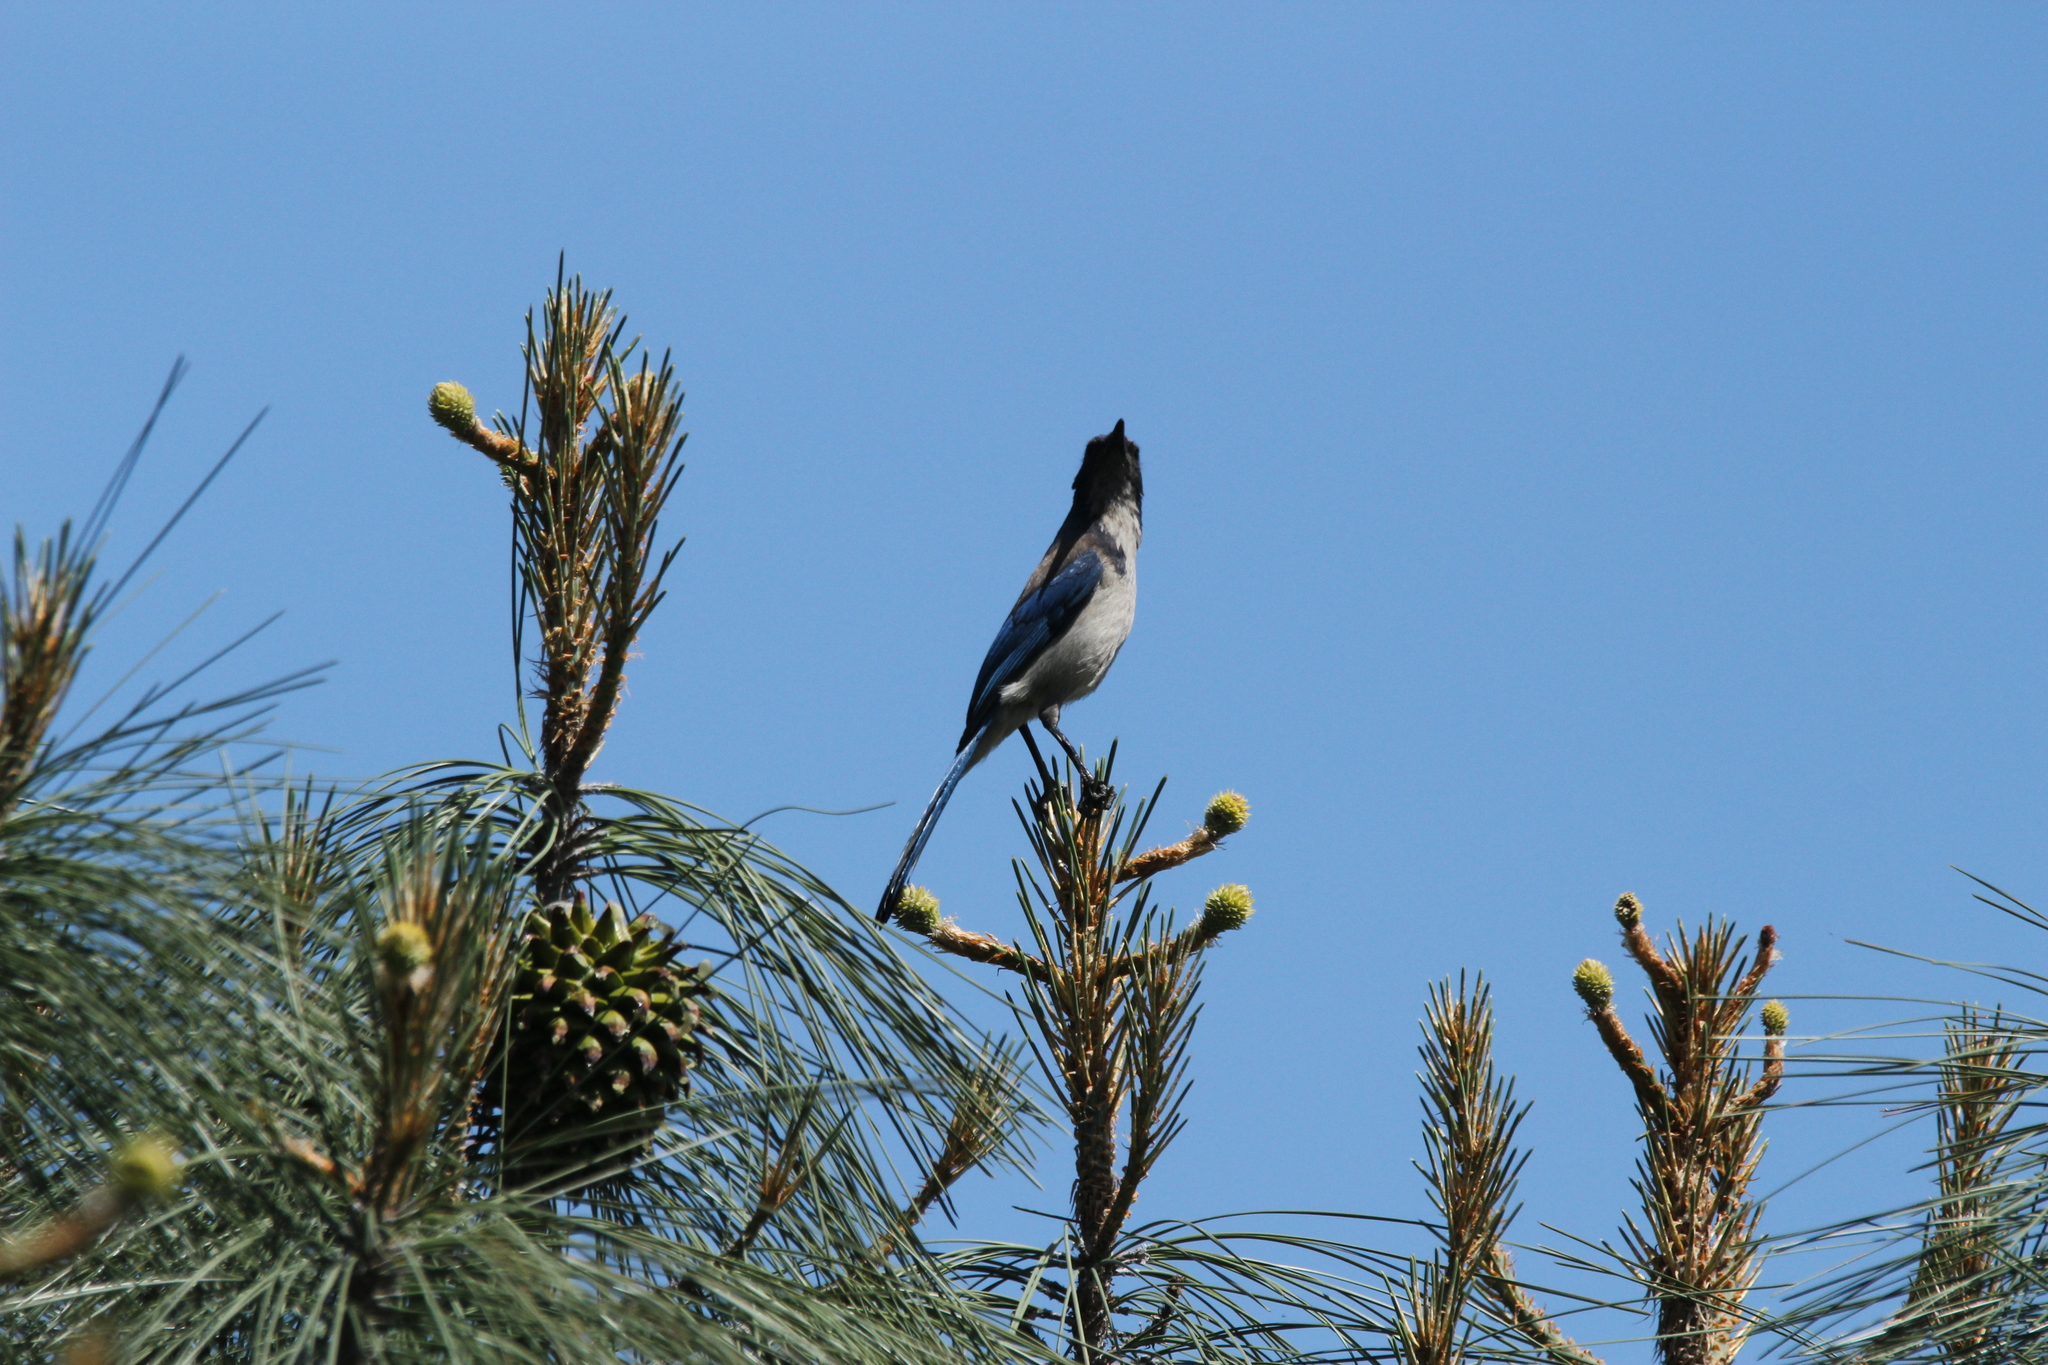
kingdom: Animalia
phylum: Chordata
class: Aves
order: Passeriformes
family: Corvidae
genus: Aphelocoma
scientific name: Aphelocoma californica
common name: California scrub-jay
